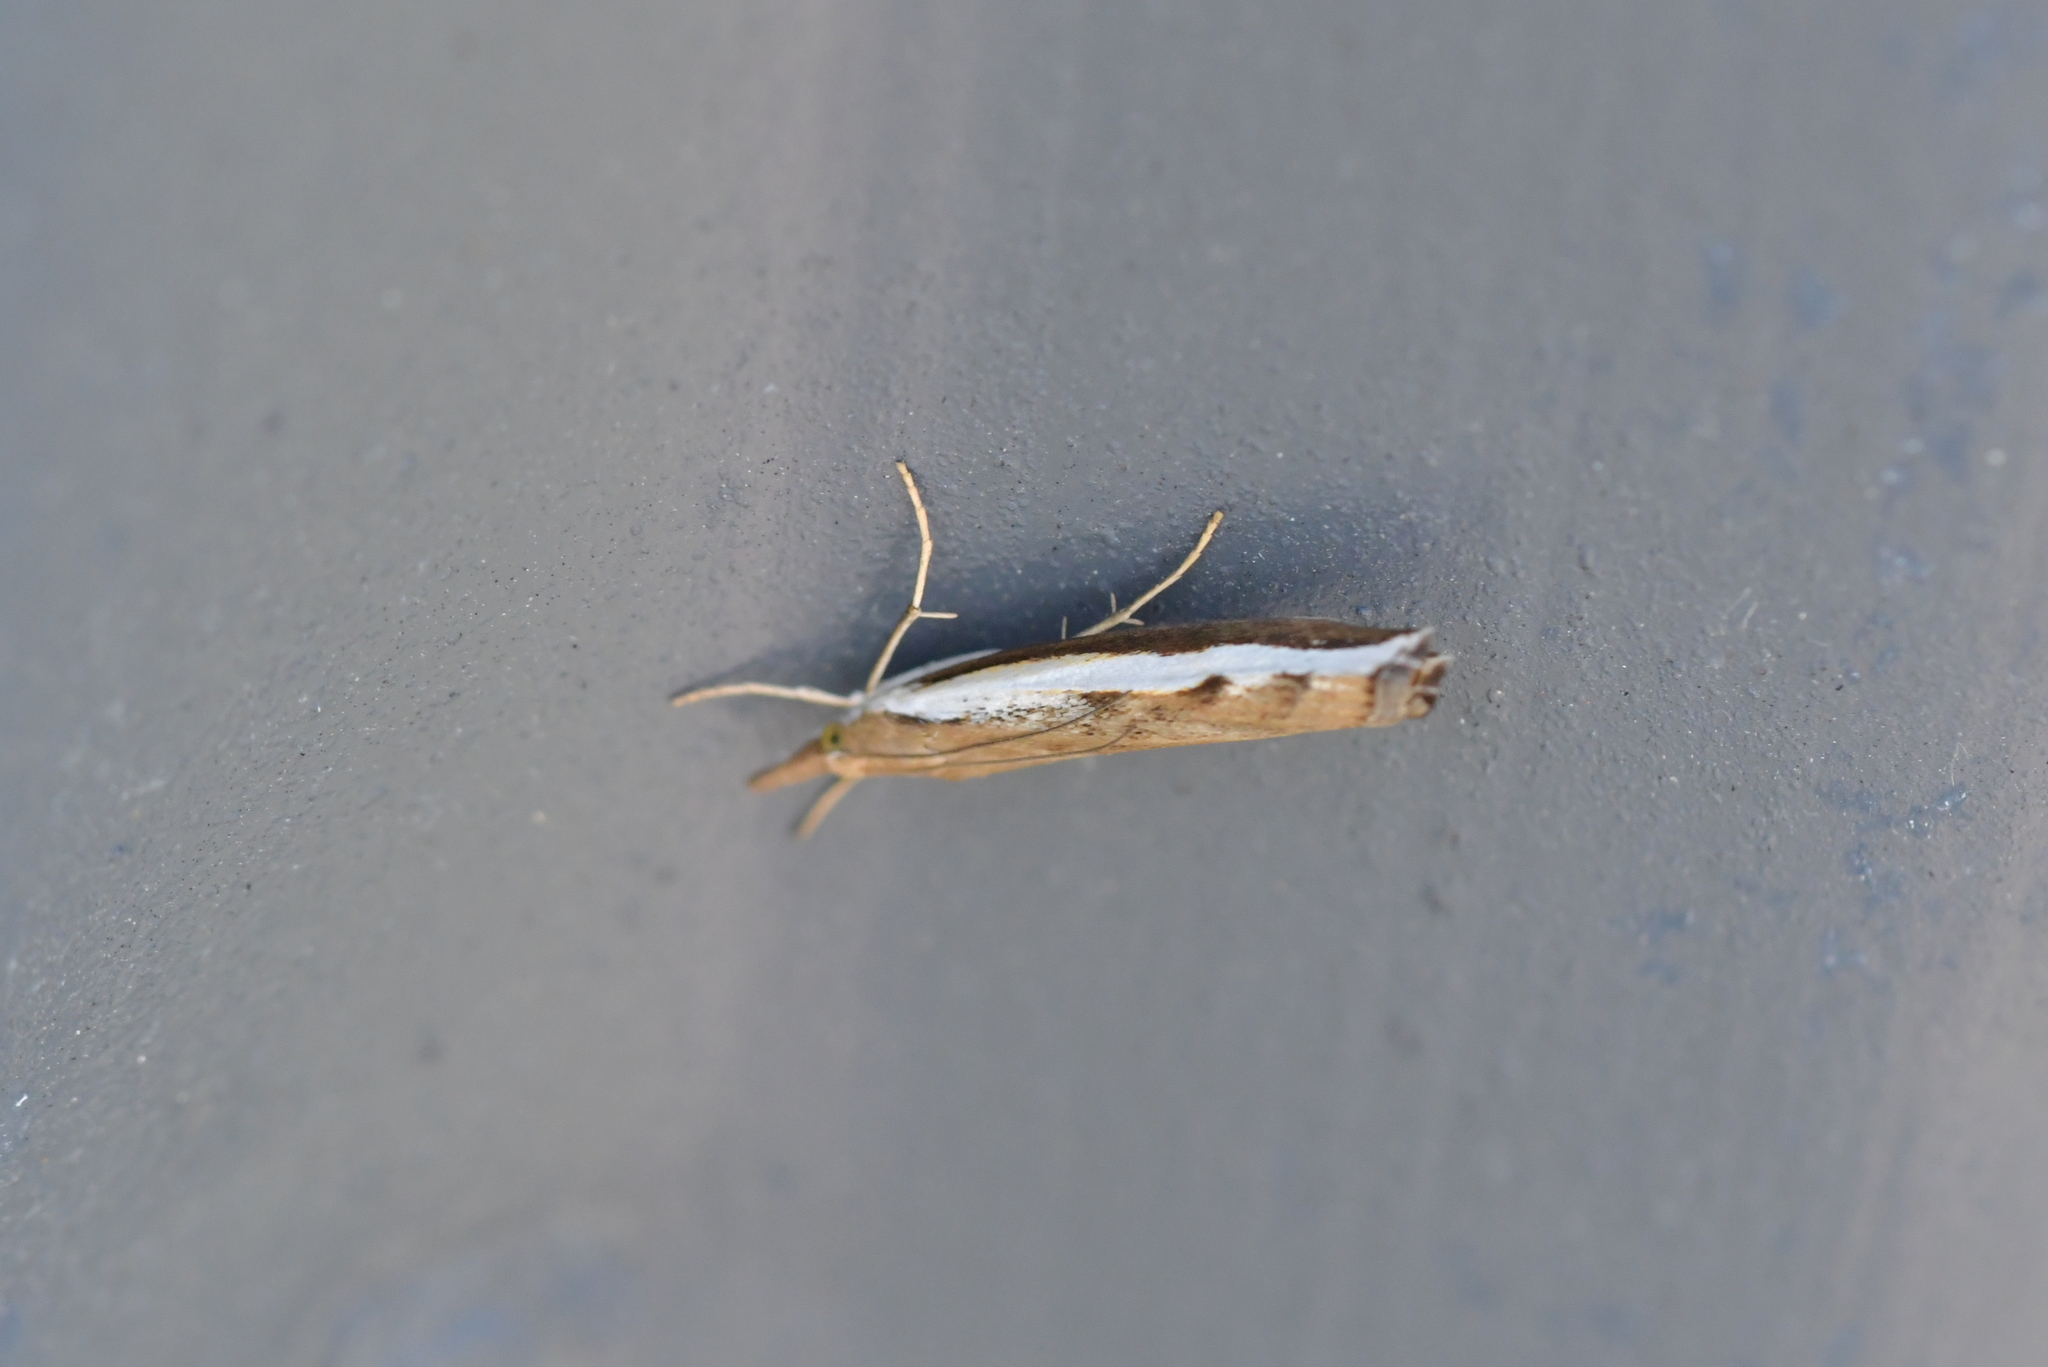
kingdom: Animalia
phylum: Arthropoda
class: Insecta
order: Lepidoptera
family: Crambidae
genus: Orocrambus
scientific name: Orocrambus flexuosellus
